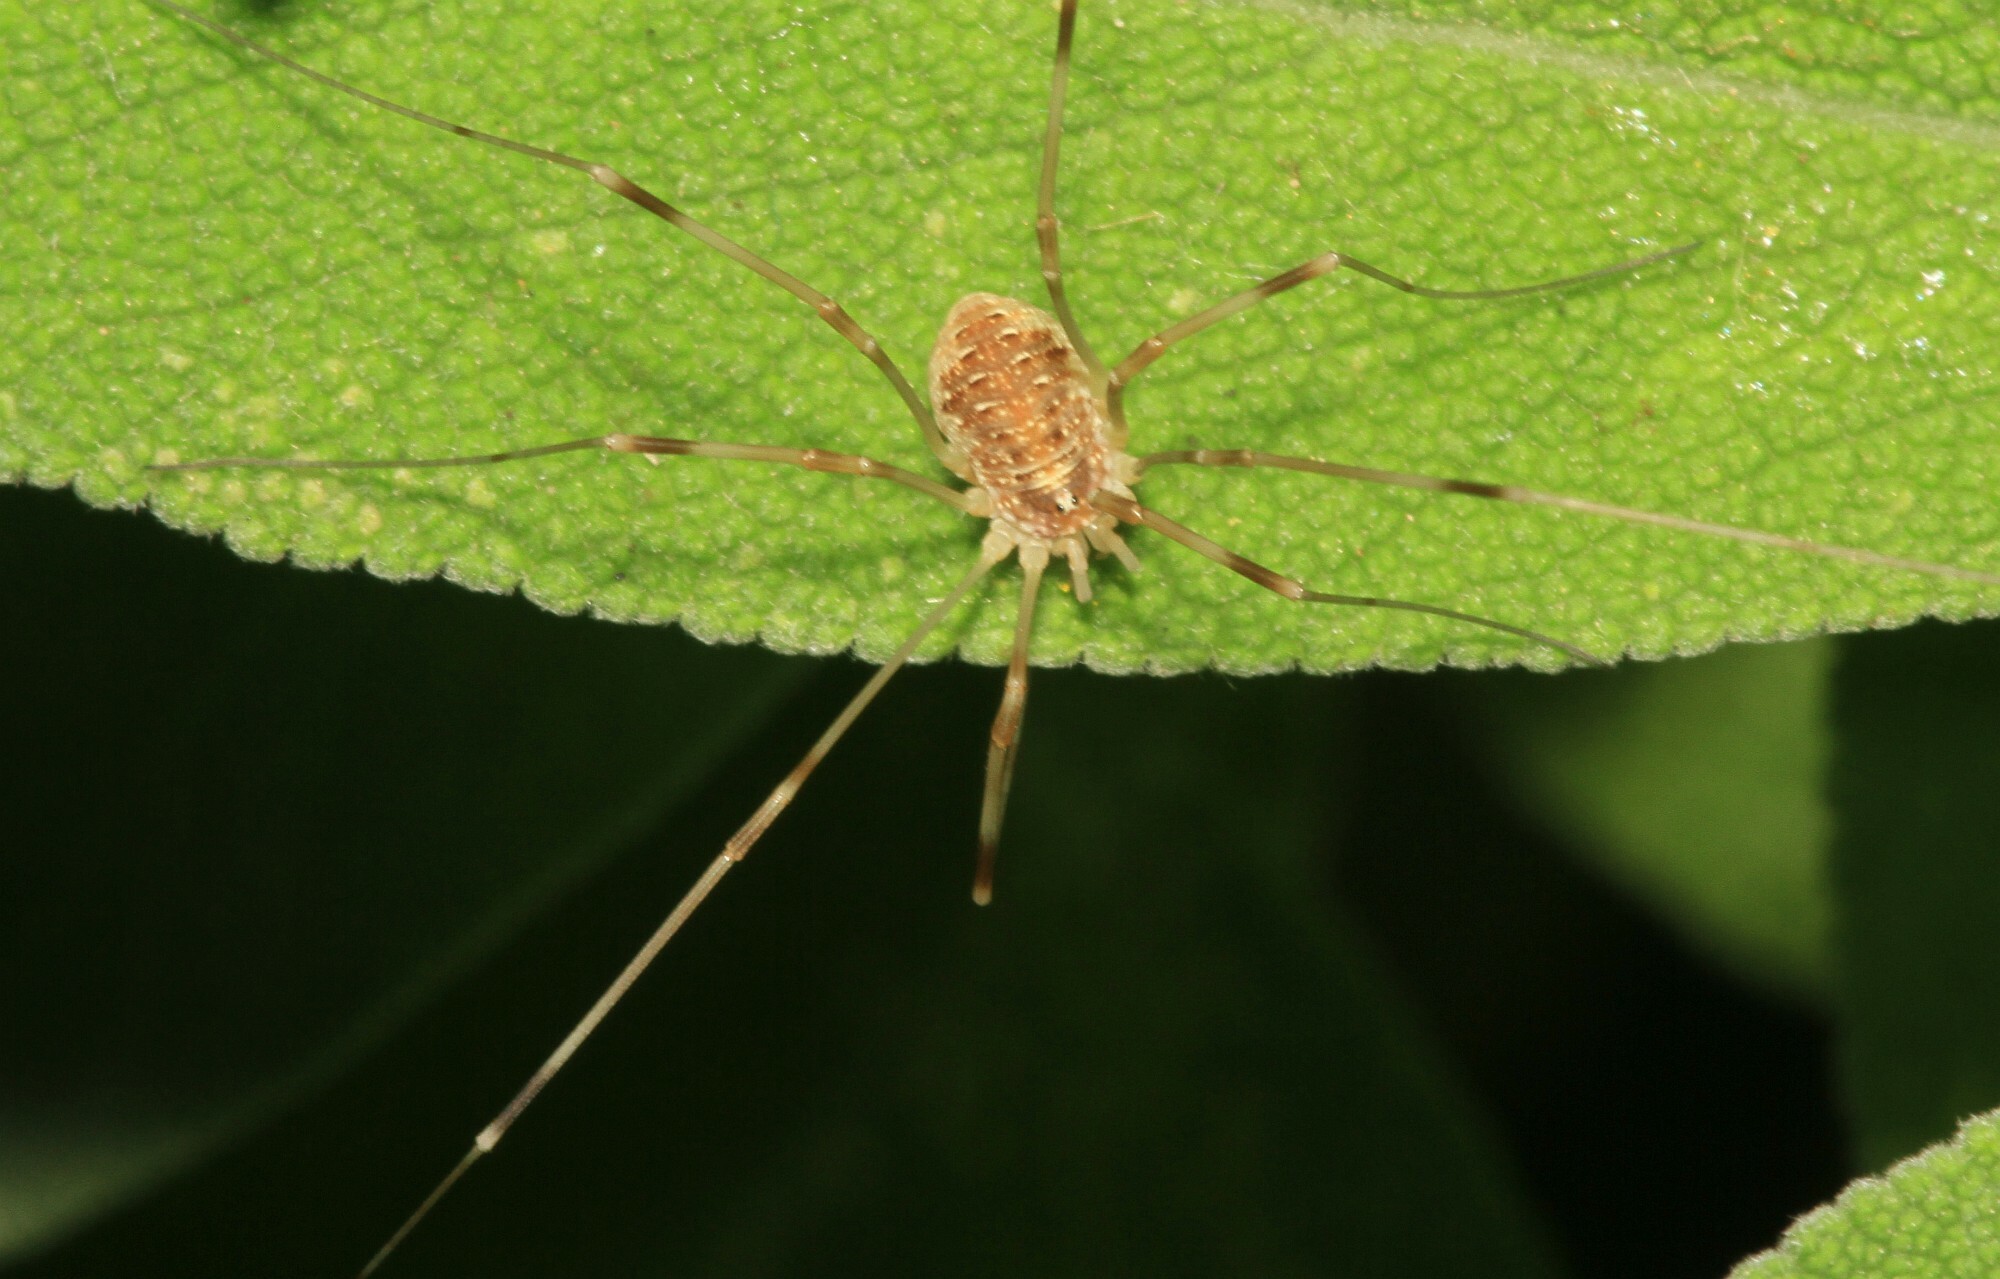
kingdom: Animalia
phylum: Arthropoda
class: Arachnida
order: Opiliones
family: Phalangiidae
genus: Opilio
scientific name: Opilio canestrinii
